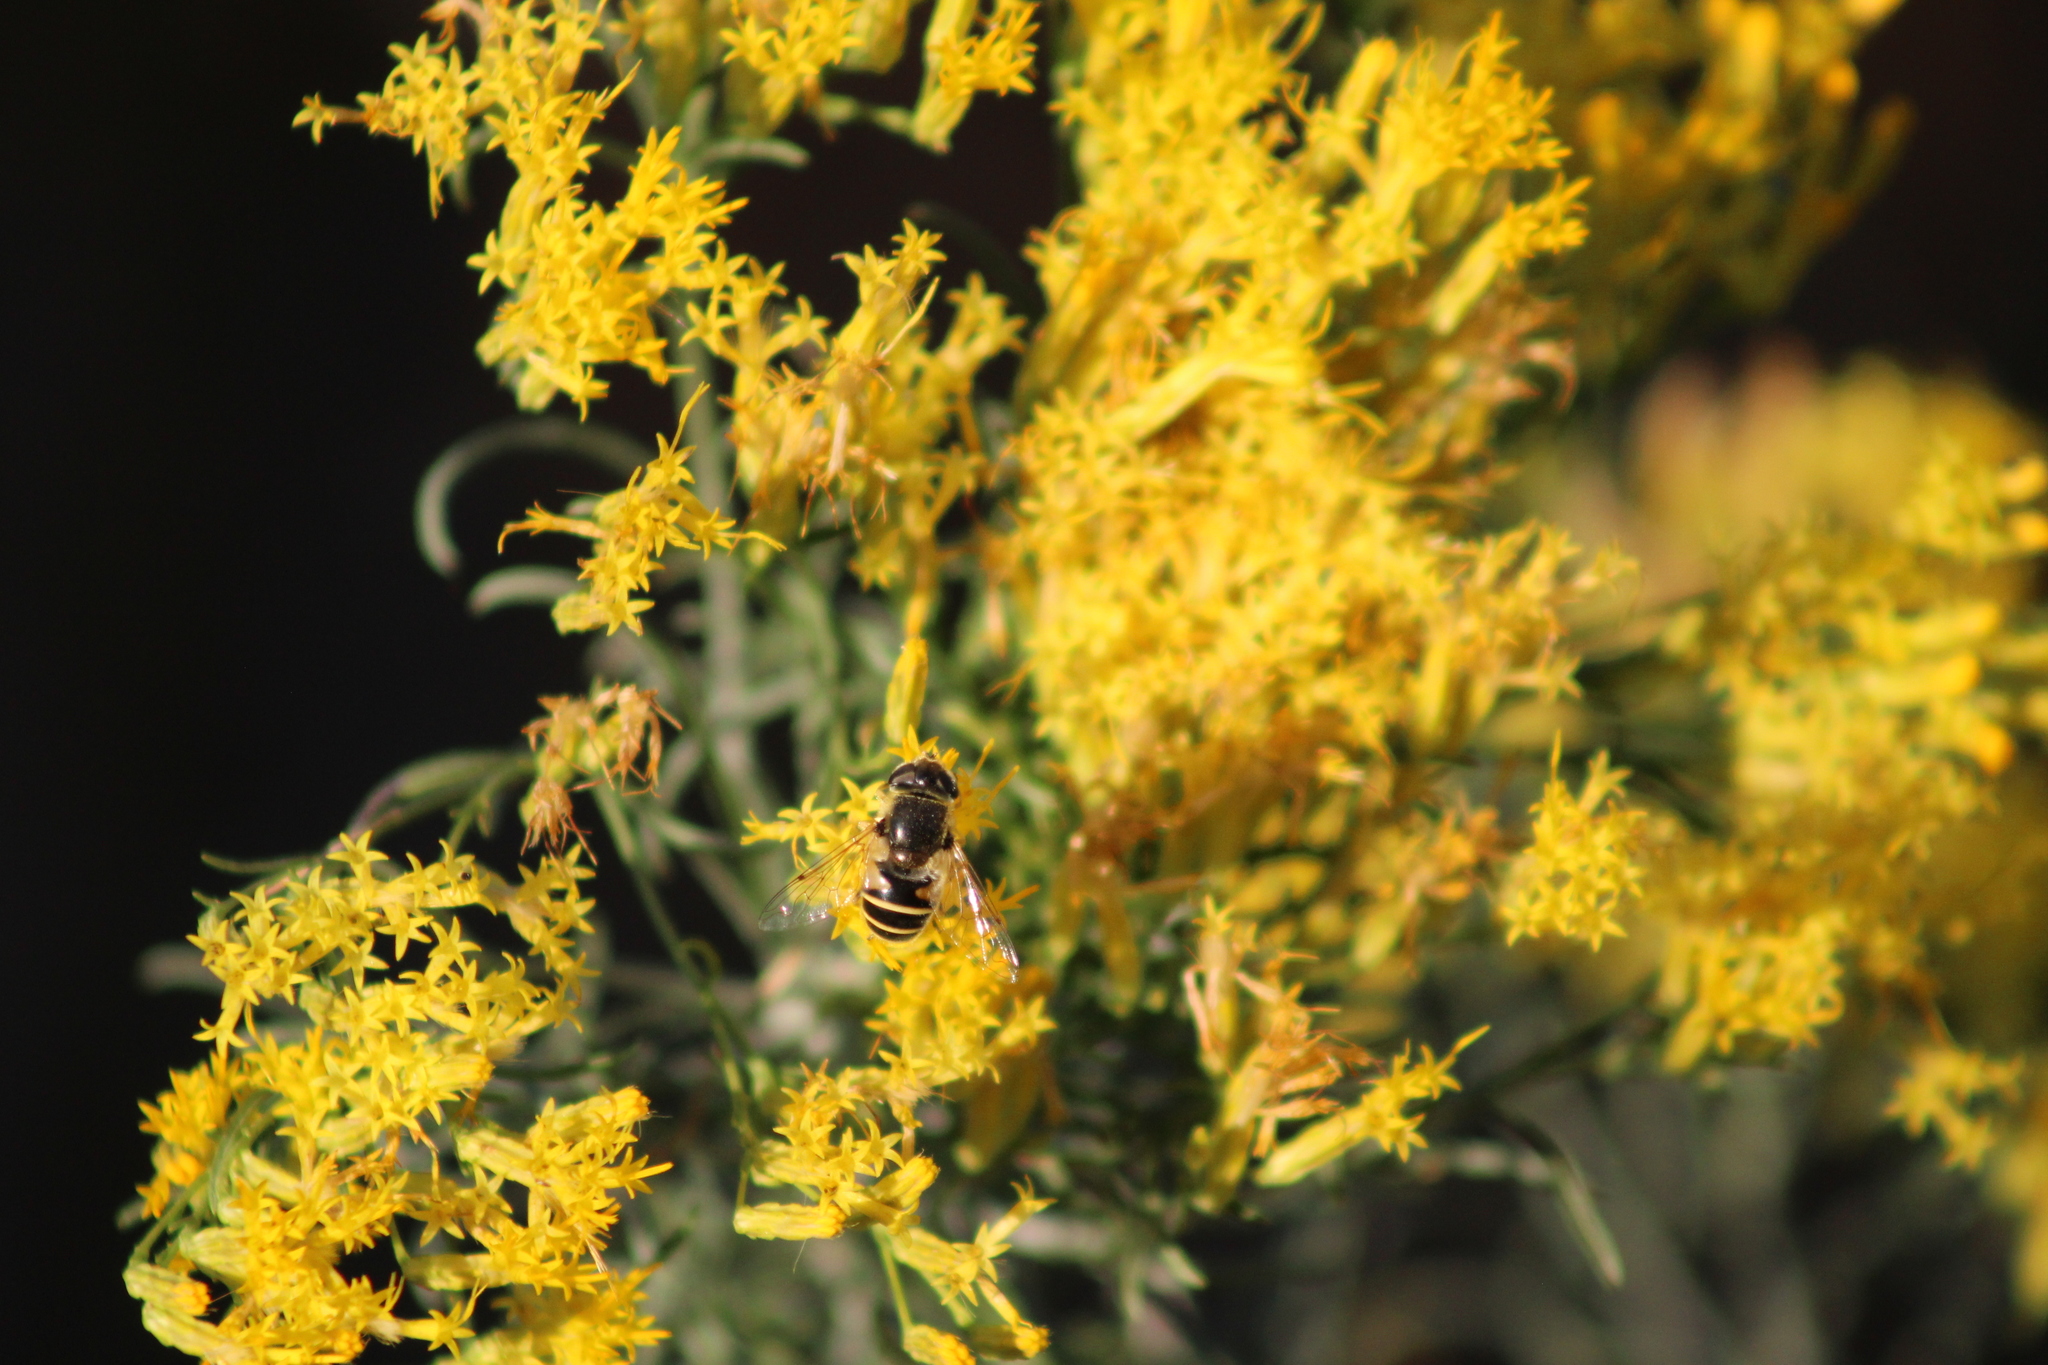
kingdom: Animalia
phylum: Arthropoda
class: Insecta
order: Diptera
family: Syrphidae
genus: Eristalis
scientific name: Eristalis hirta
